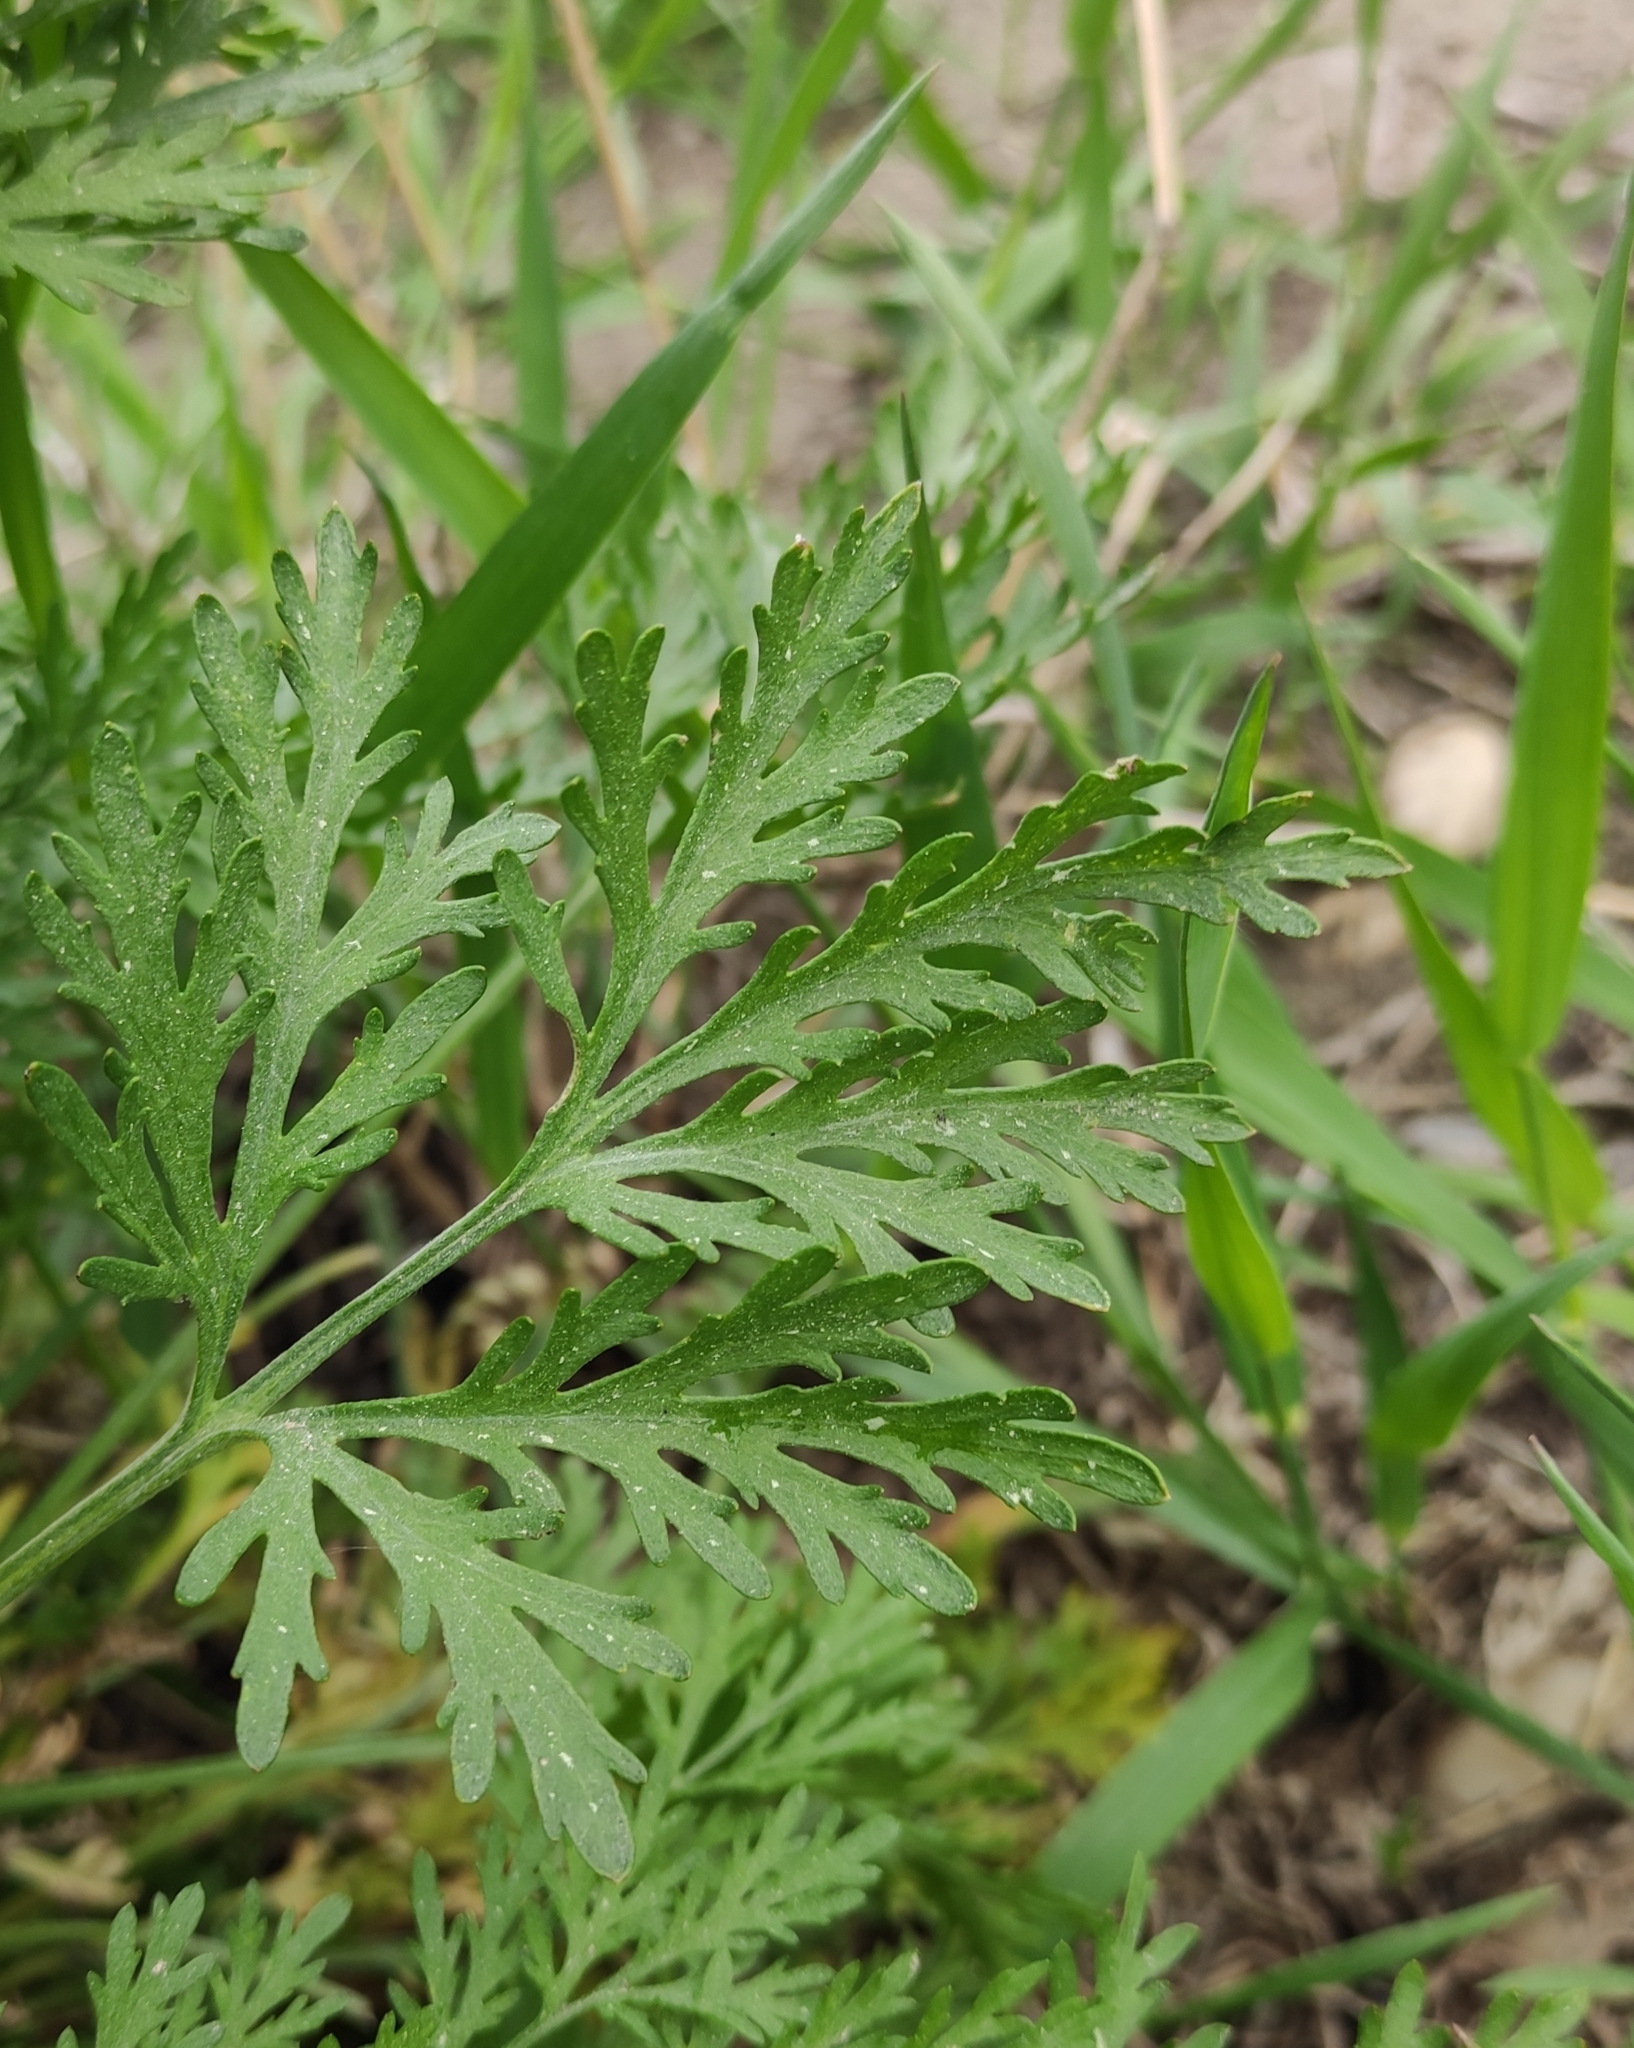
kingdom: Plantae
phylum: Tracheophyta
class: Magnoliopsida
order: Asterales
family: Asteraceae
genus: Artemisia
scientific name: Artemisia sieversiana
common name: Sieversian wormwood
